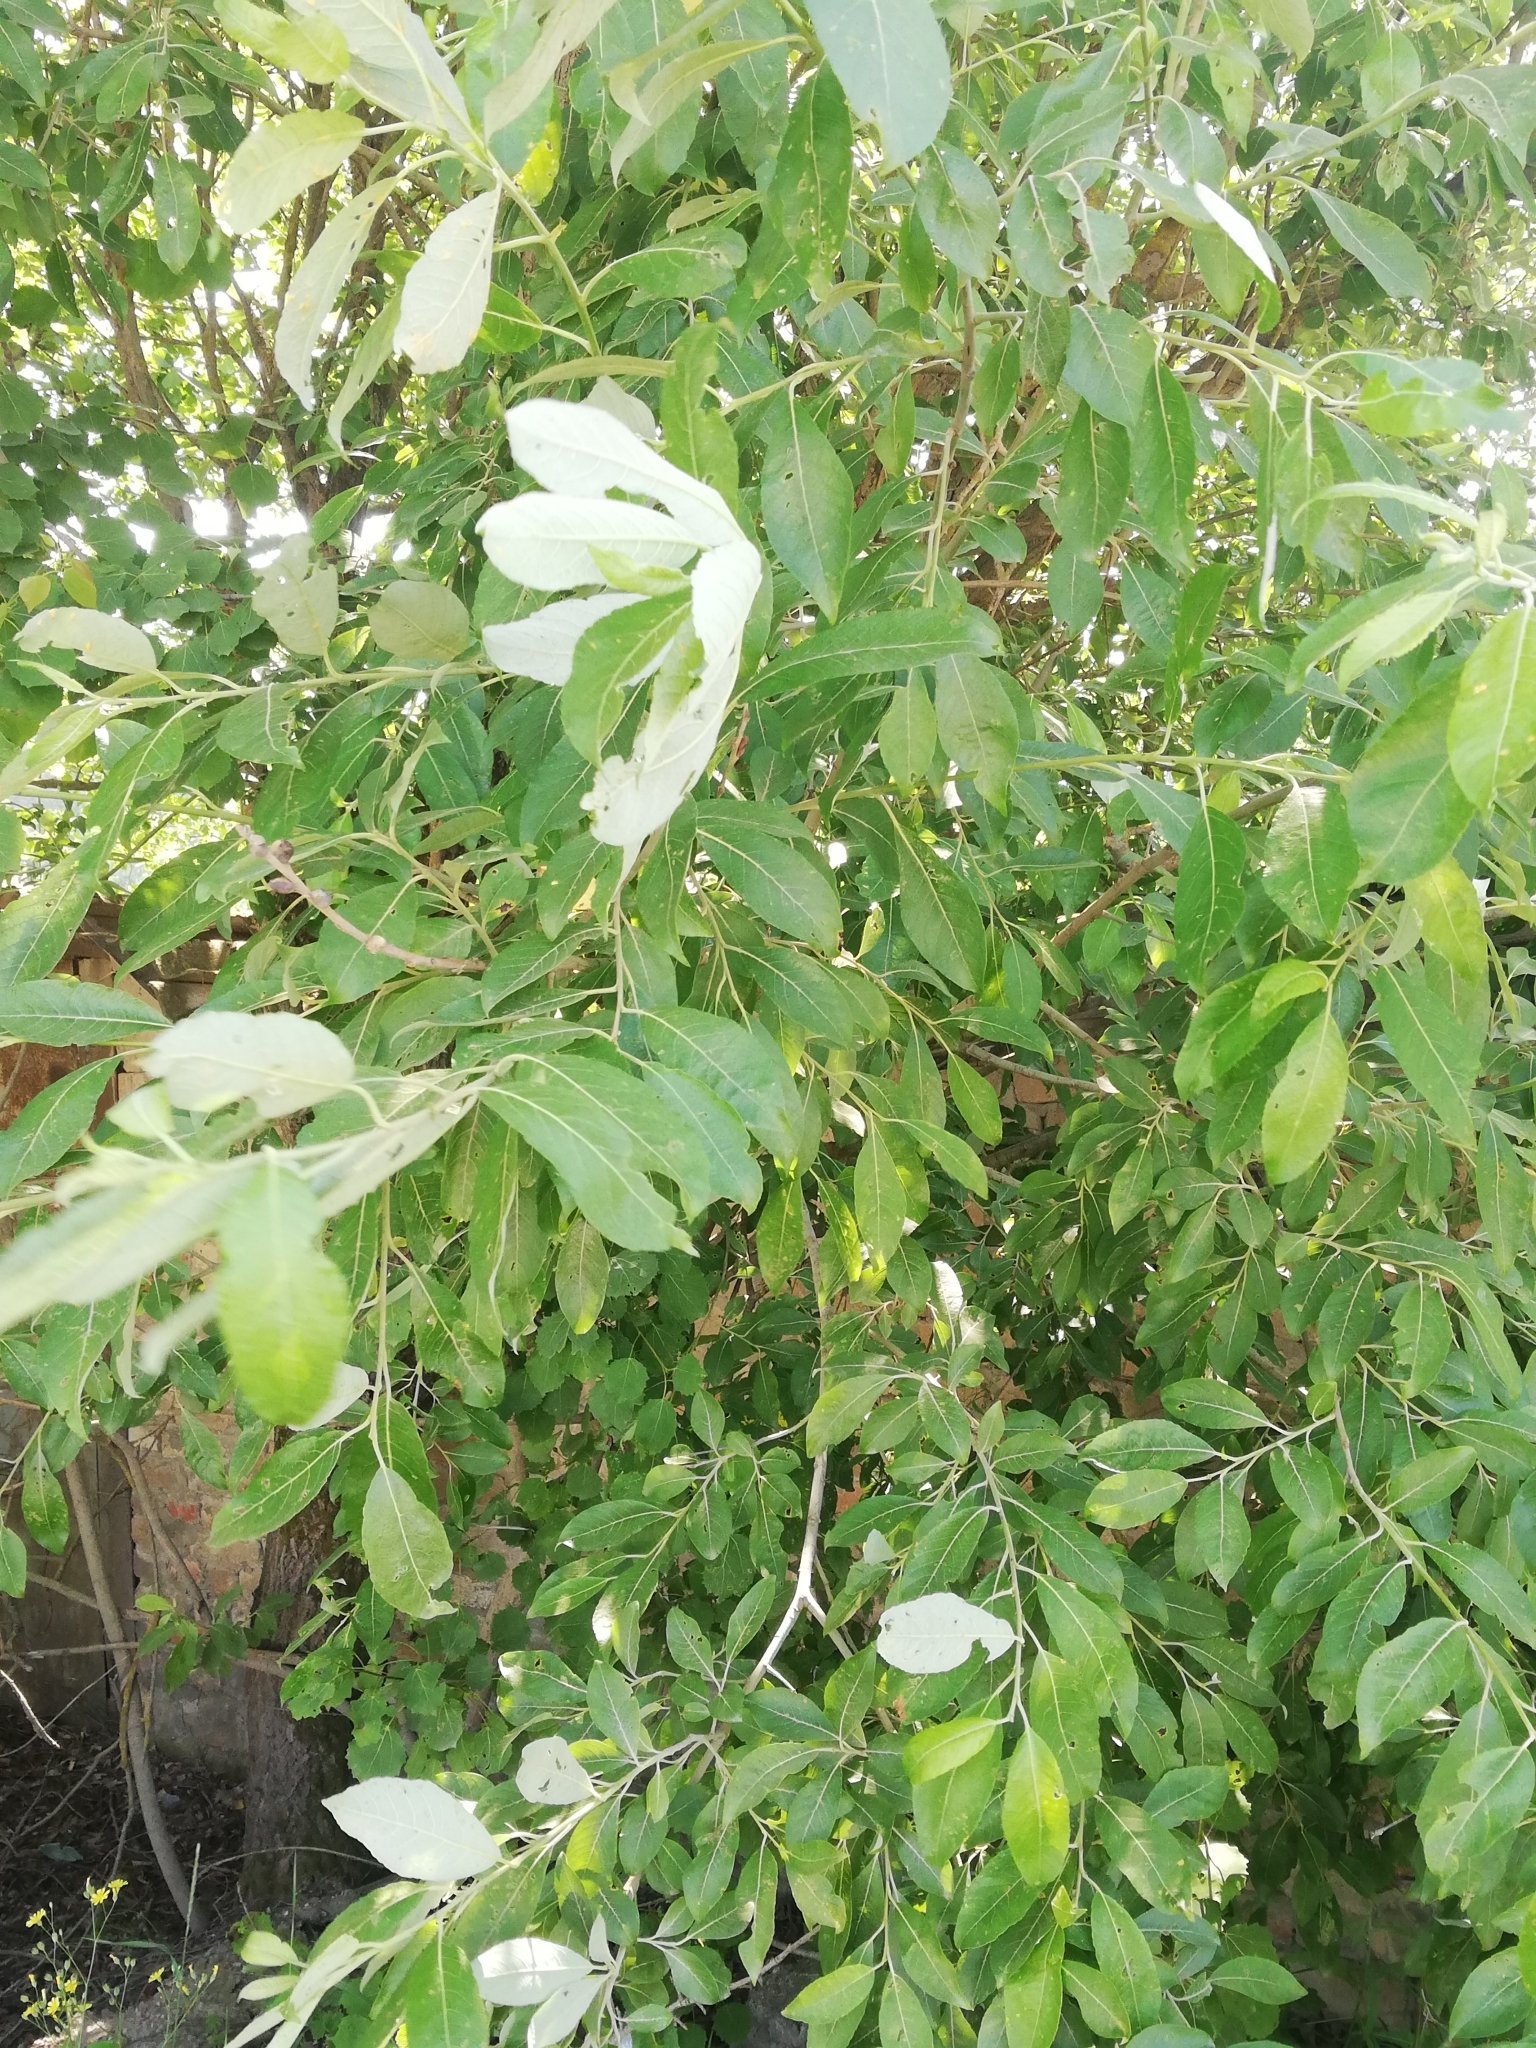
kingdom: Plantae
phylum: Tracheophyta
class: Magnoliopsida
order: Malpighiales
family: Salicaceae
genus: Salix
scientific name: Salix caprea
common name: Goat willow
